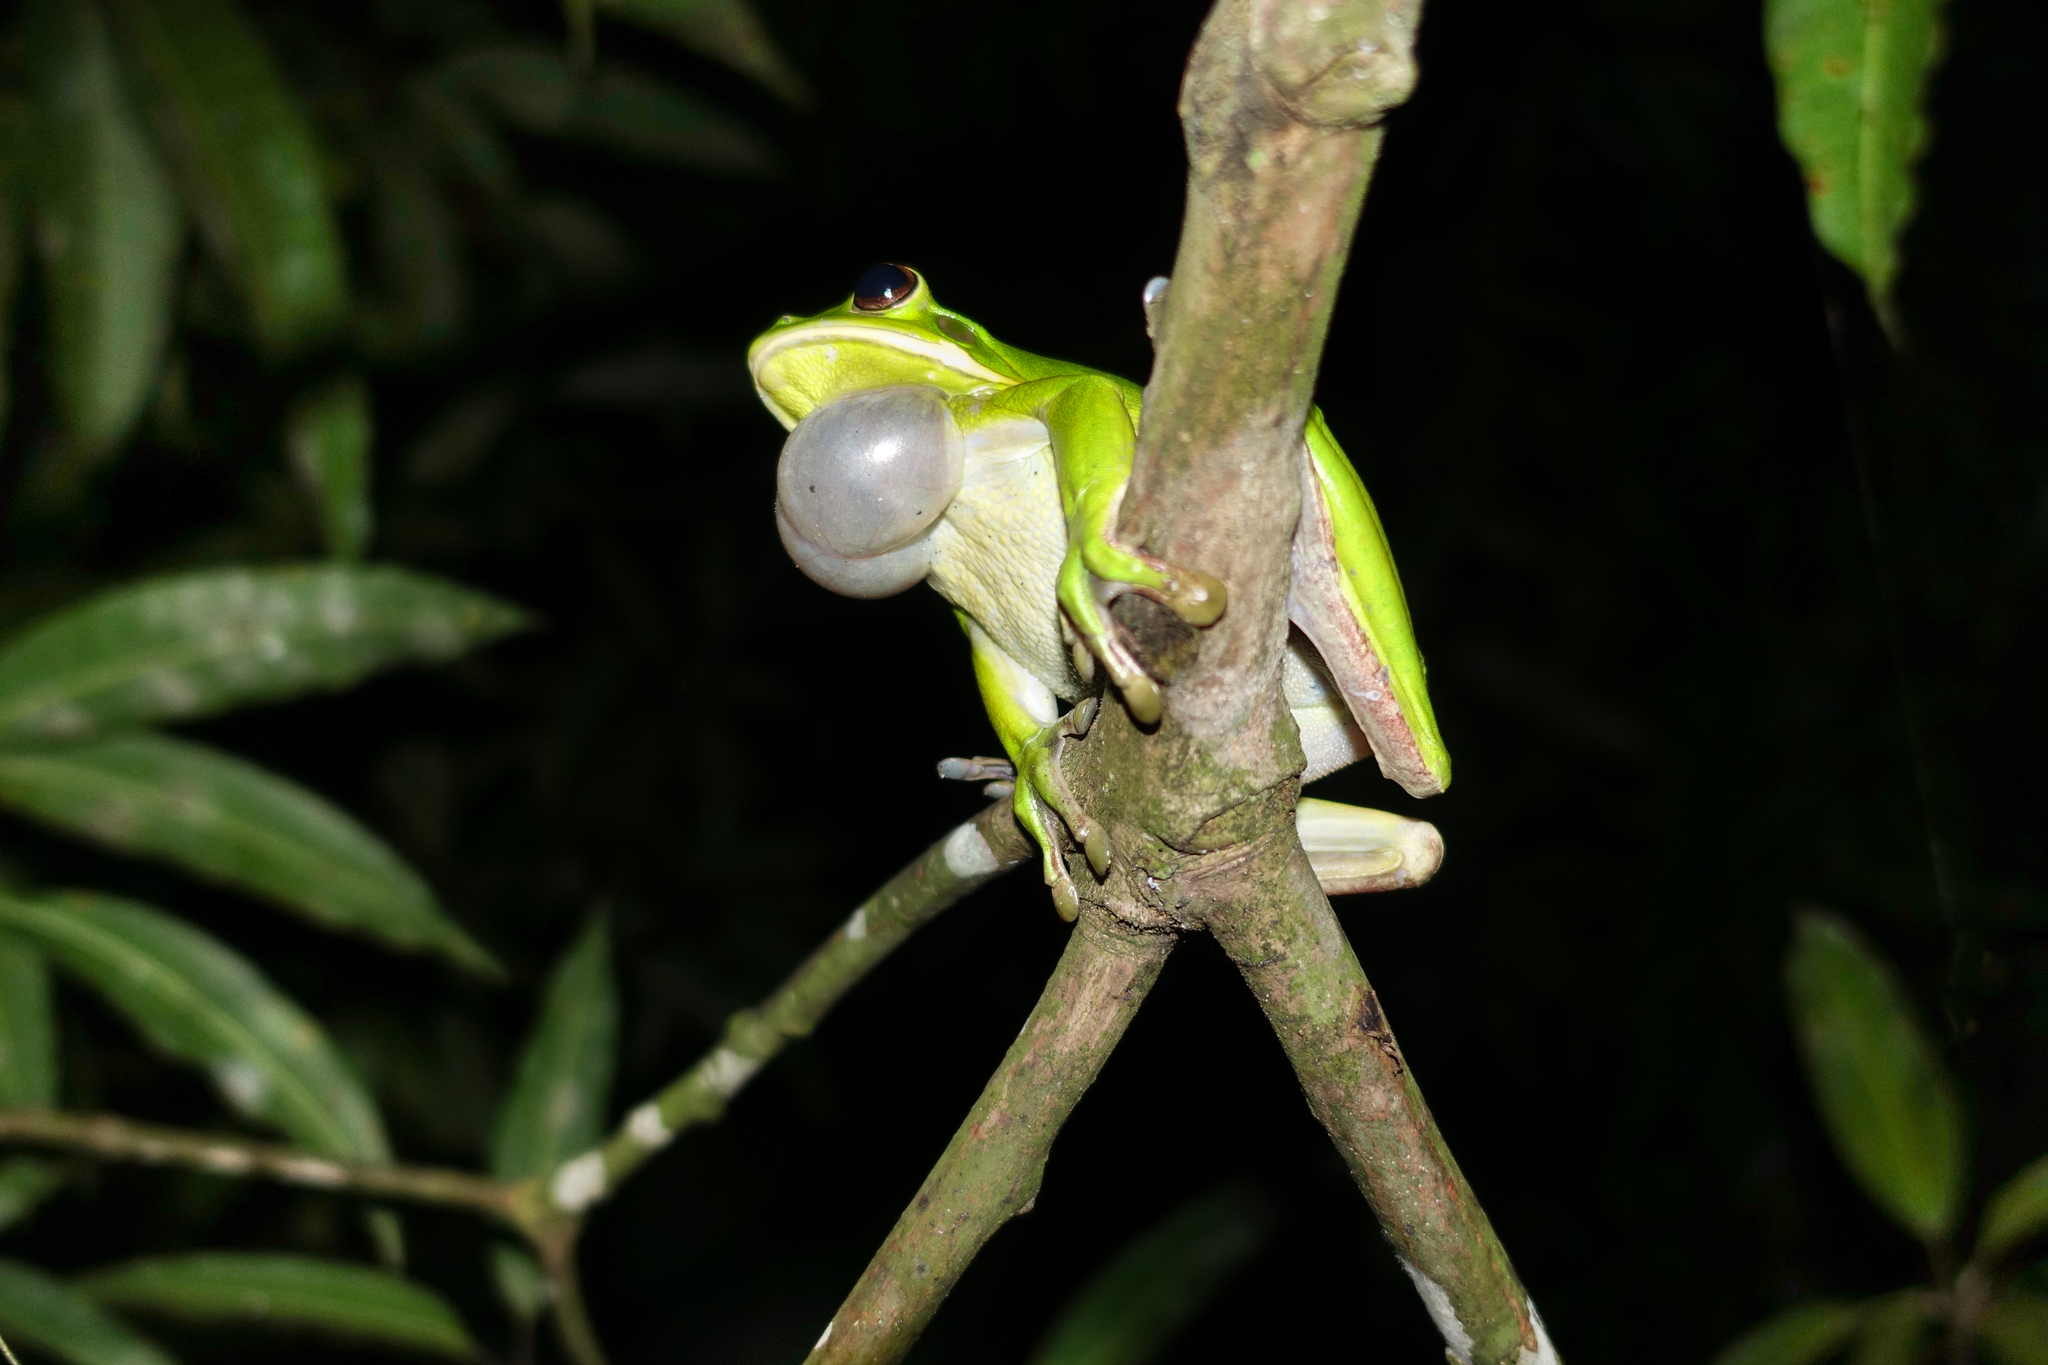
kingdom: Animalia
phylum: Chordata
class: Amphibia
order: Anura
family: Pelodryadidae
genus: Nyctimystes
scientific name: Nyctimystes infrafrenatus
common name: Australian giant treefrog
